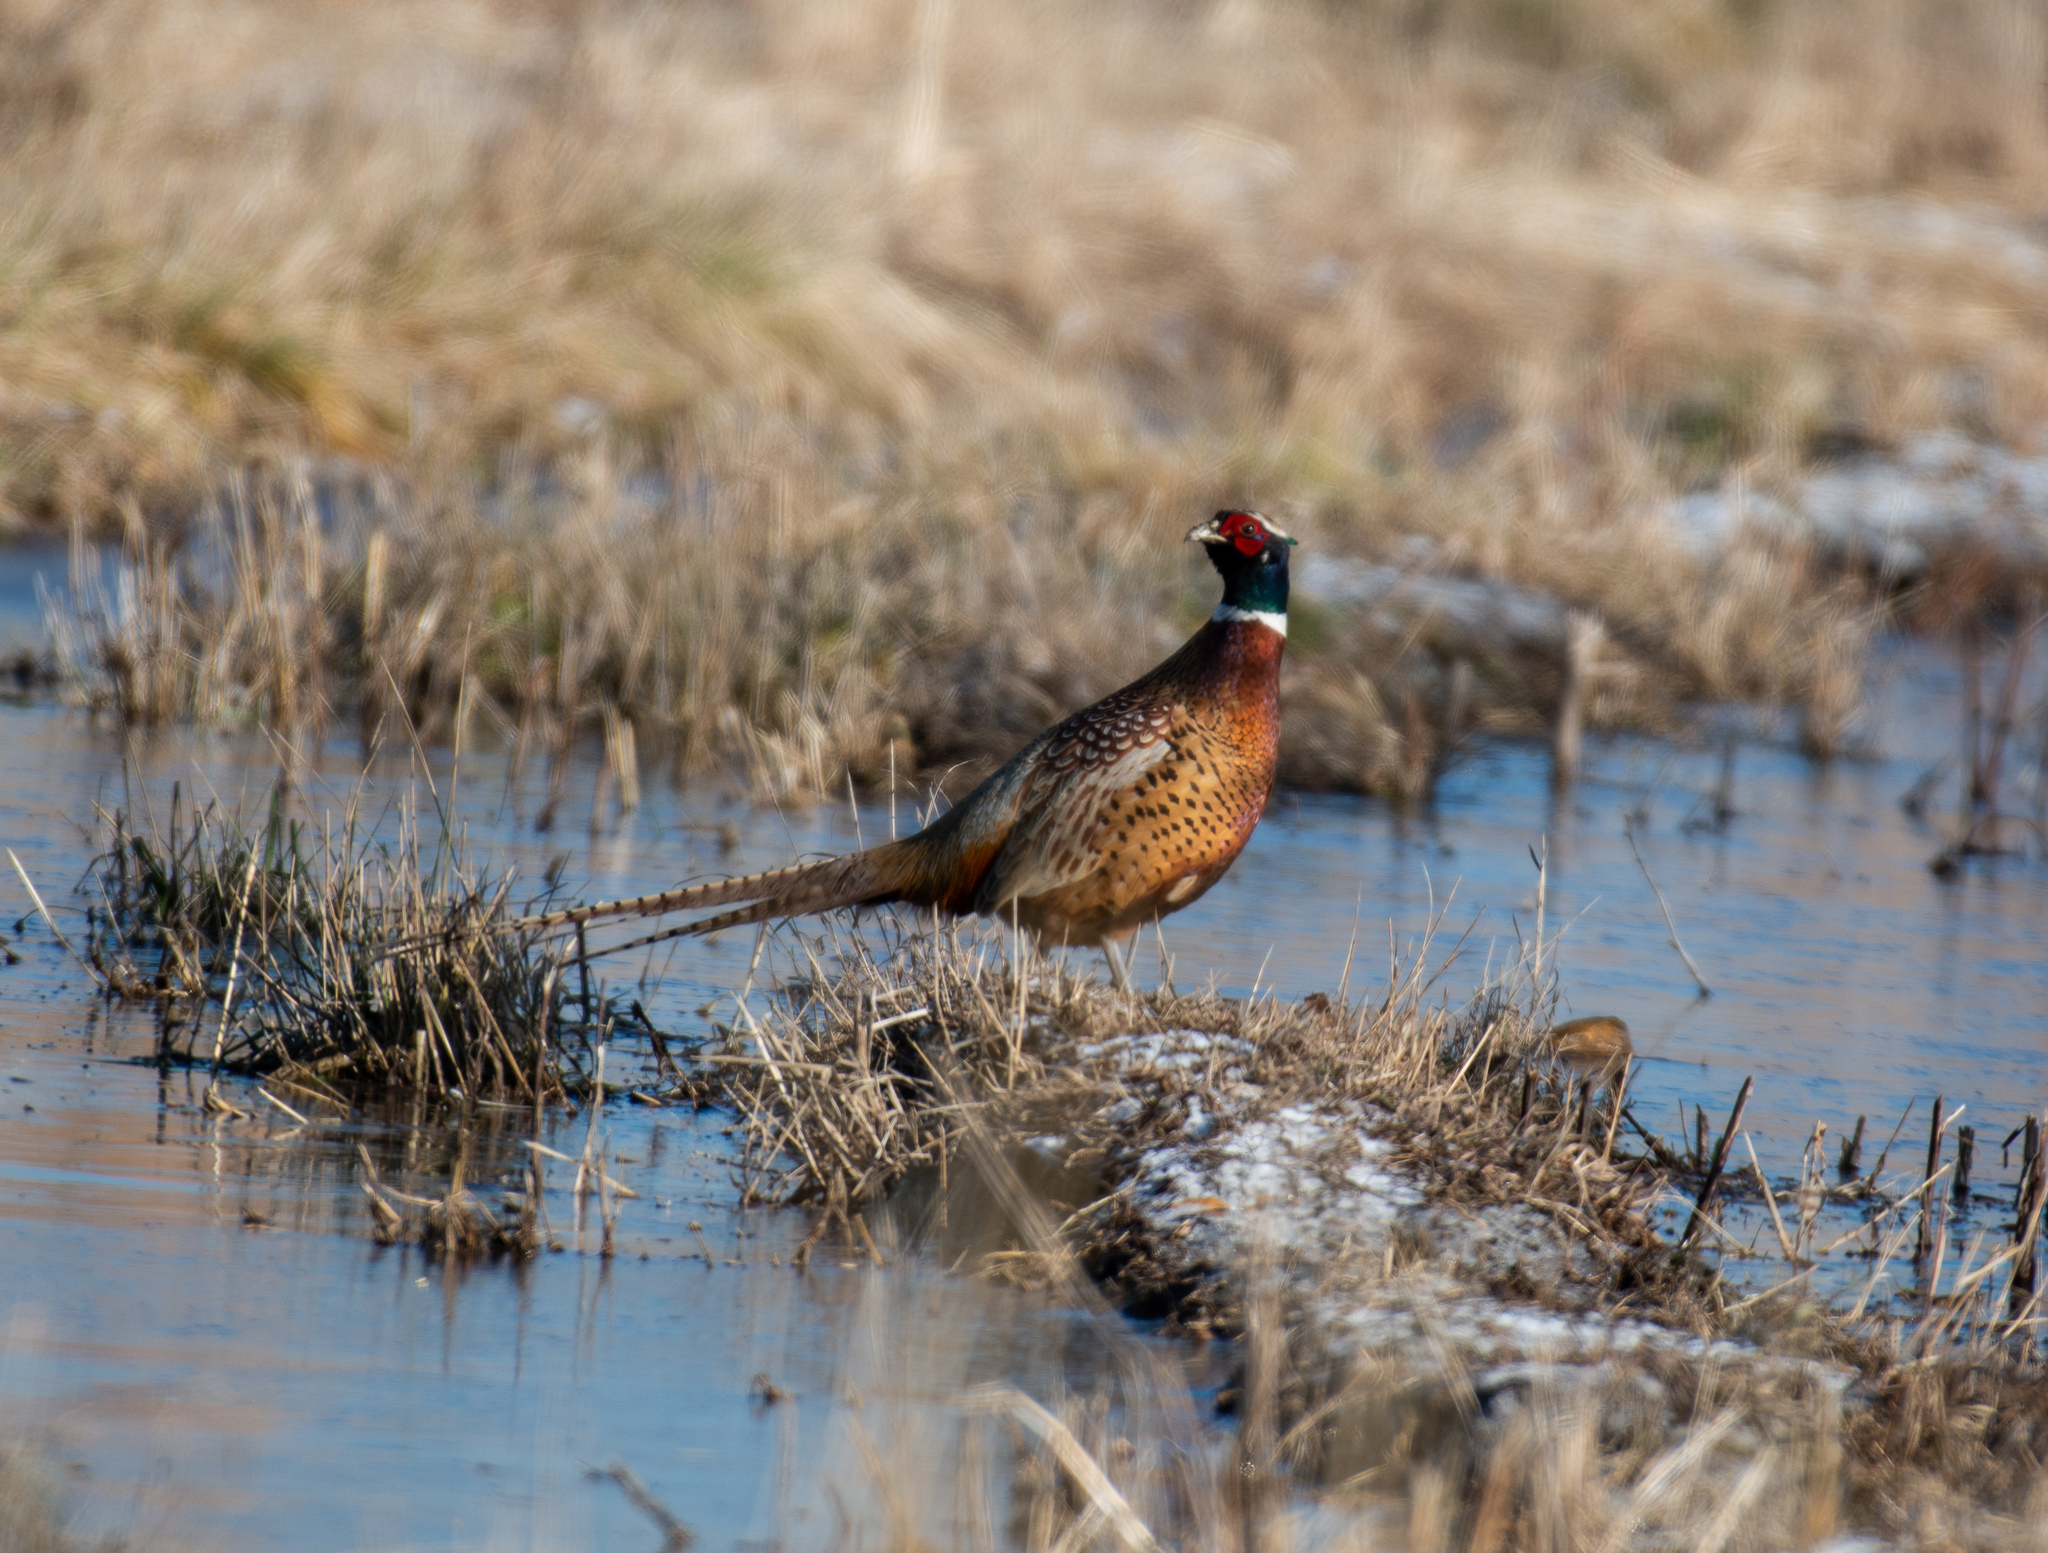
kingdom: Animalia
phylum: Chordata
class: Aves
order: Galliformes
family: Phasianidae
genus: Phasianus
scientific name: Phasianus colchicus
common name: Common pheasant
